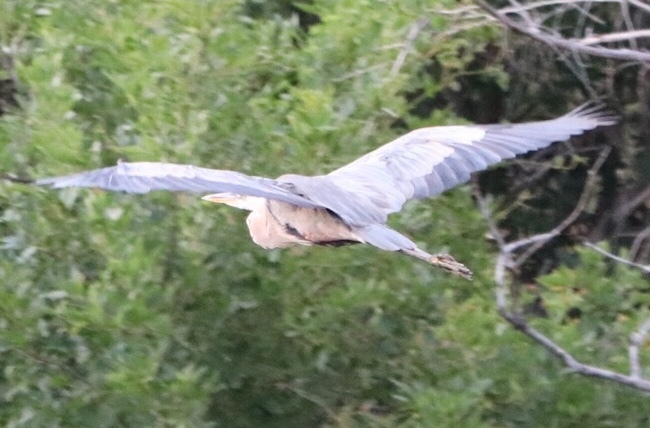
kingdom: Animalia
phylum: Chordata
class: Aves
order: Pelecaniformes
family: Ardeidae
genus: Ardea
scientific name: Ardea herodias
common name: Great blue heron
